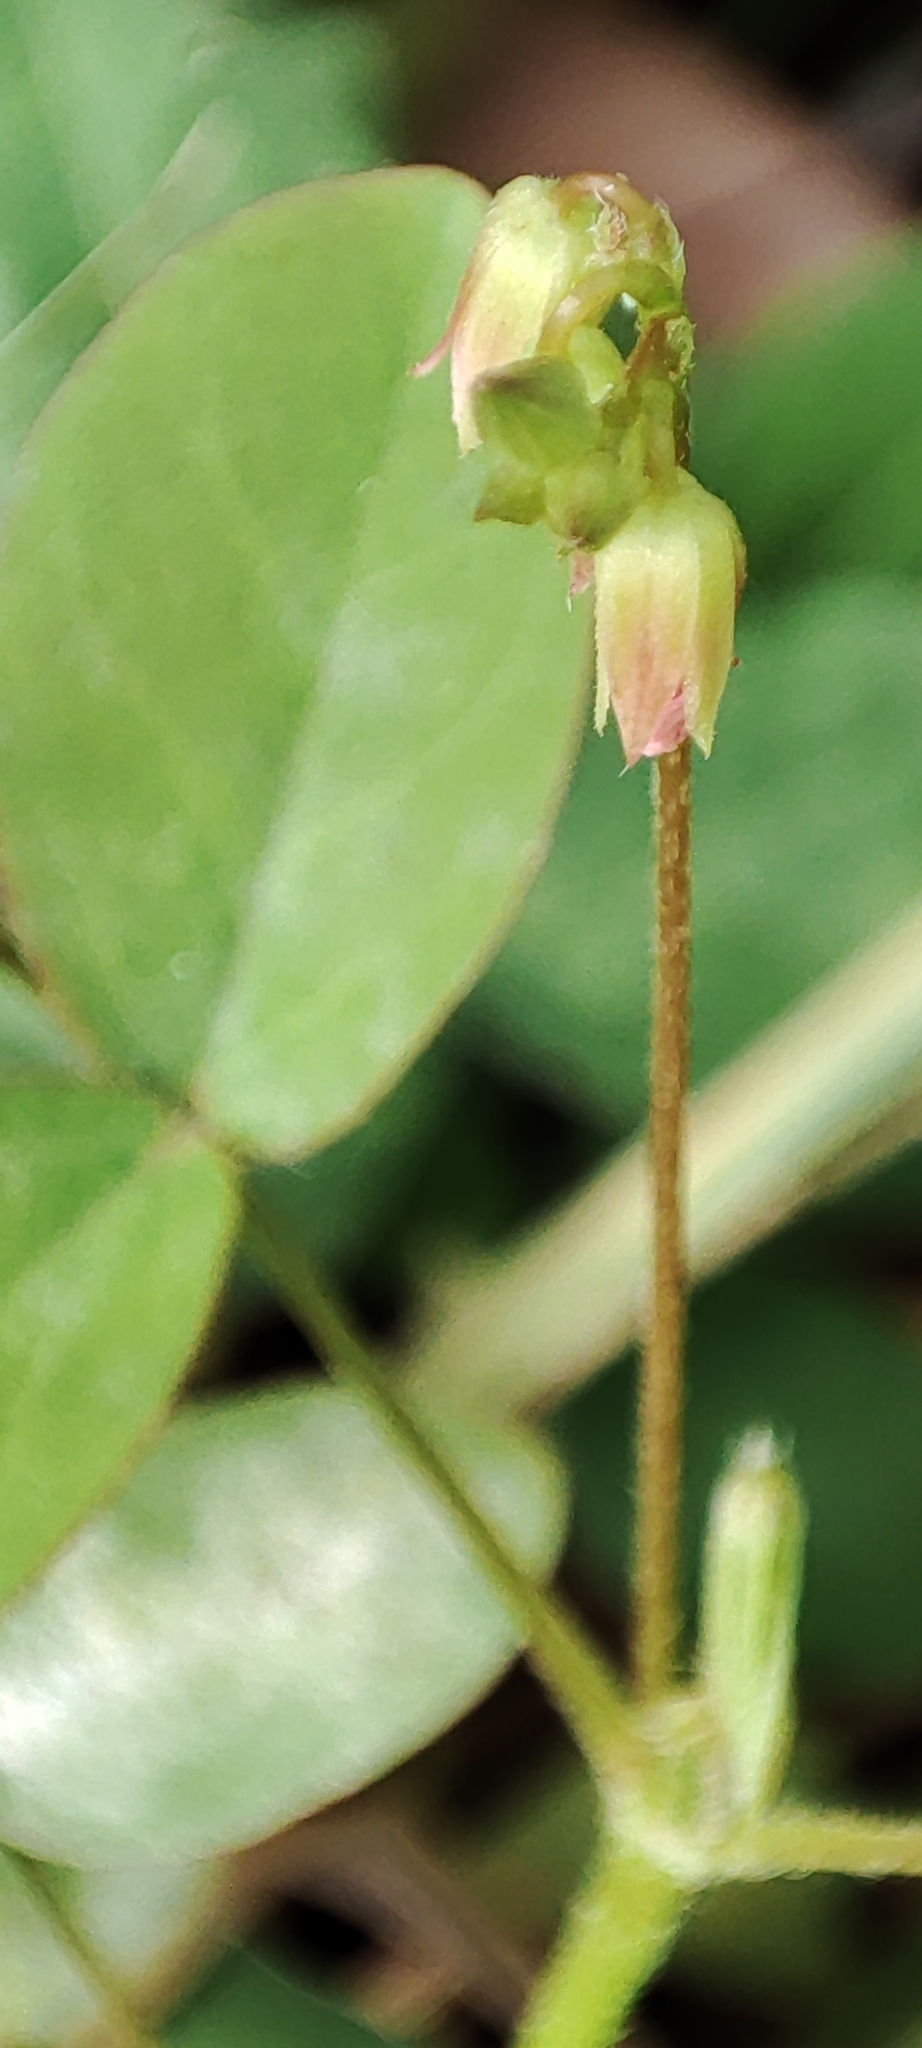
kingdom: Plantae
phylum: Tracheophyta
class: Magnoliopsida
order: Oxalidales
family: Oxalidaceae
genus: Oxalis
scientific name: Oxalis barrelieri
